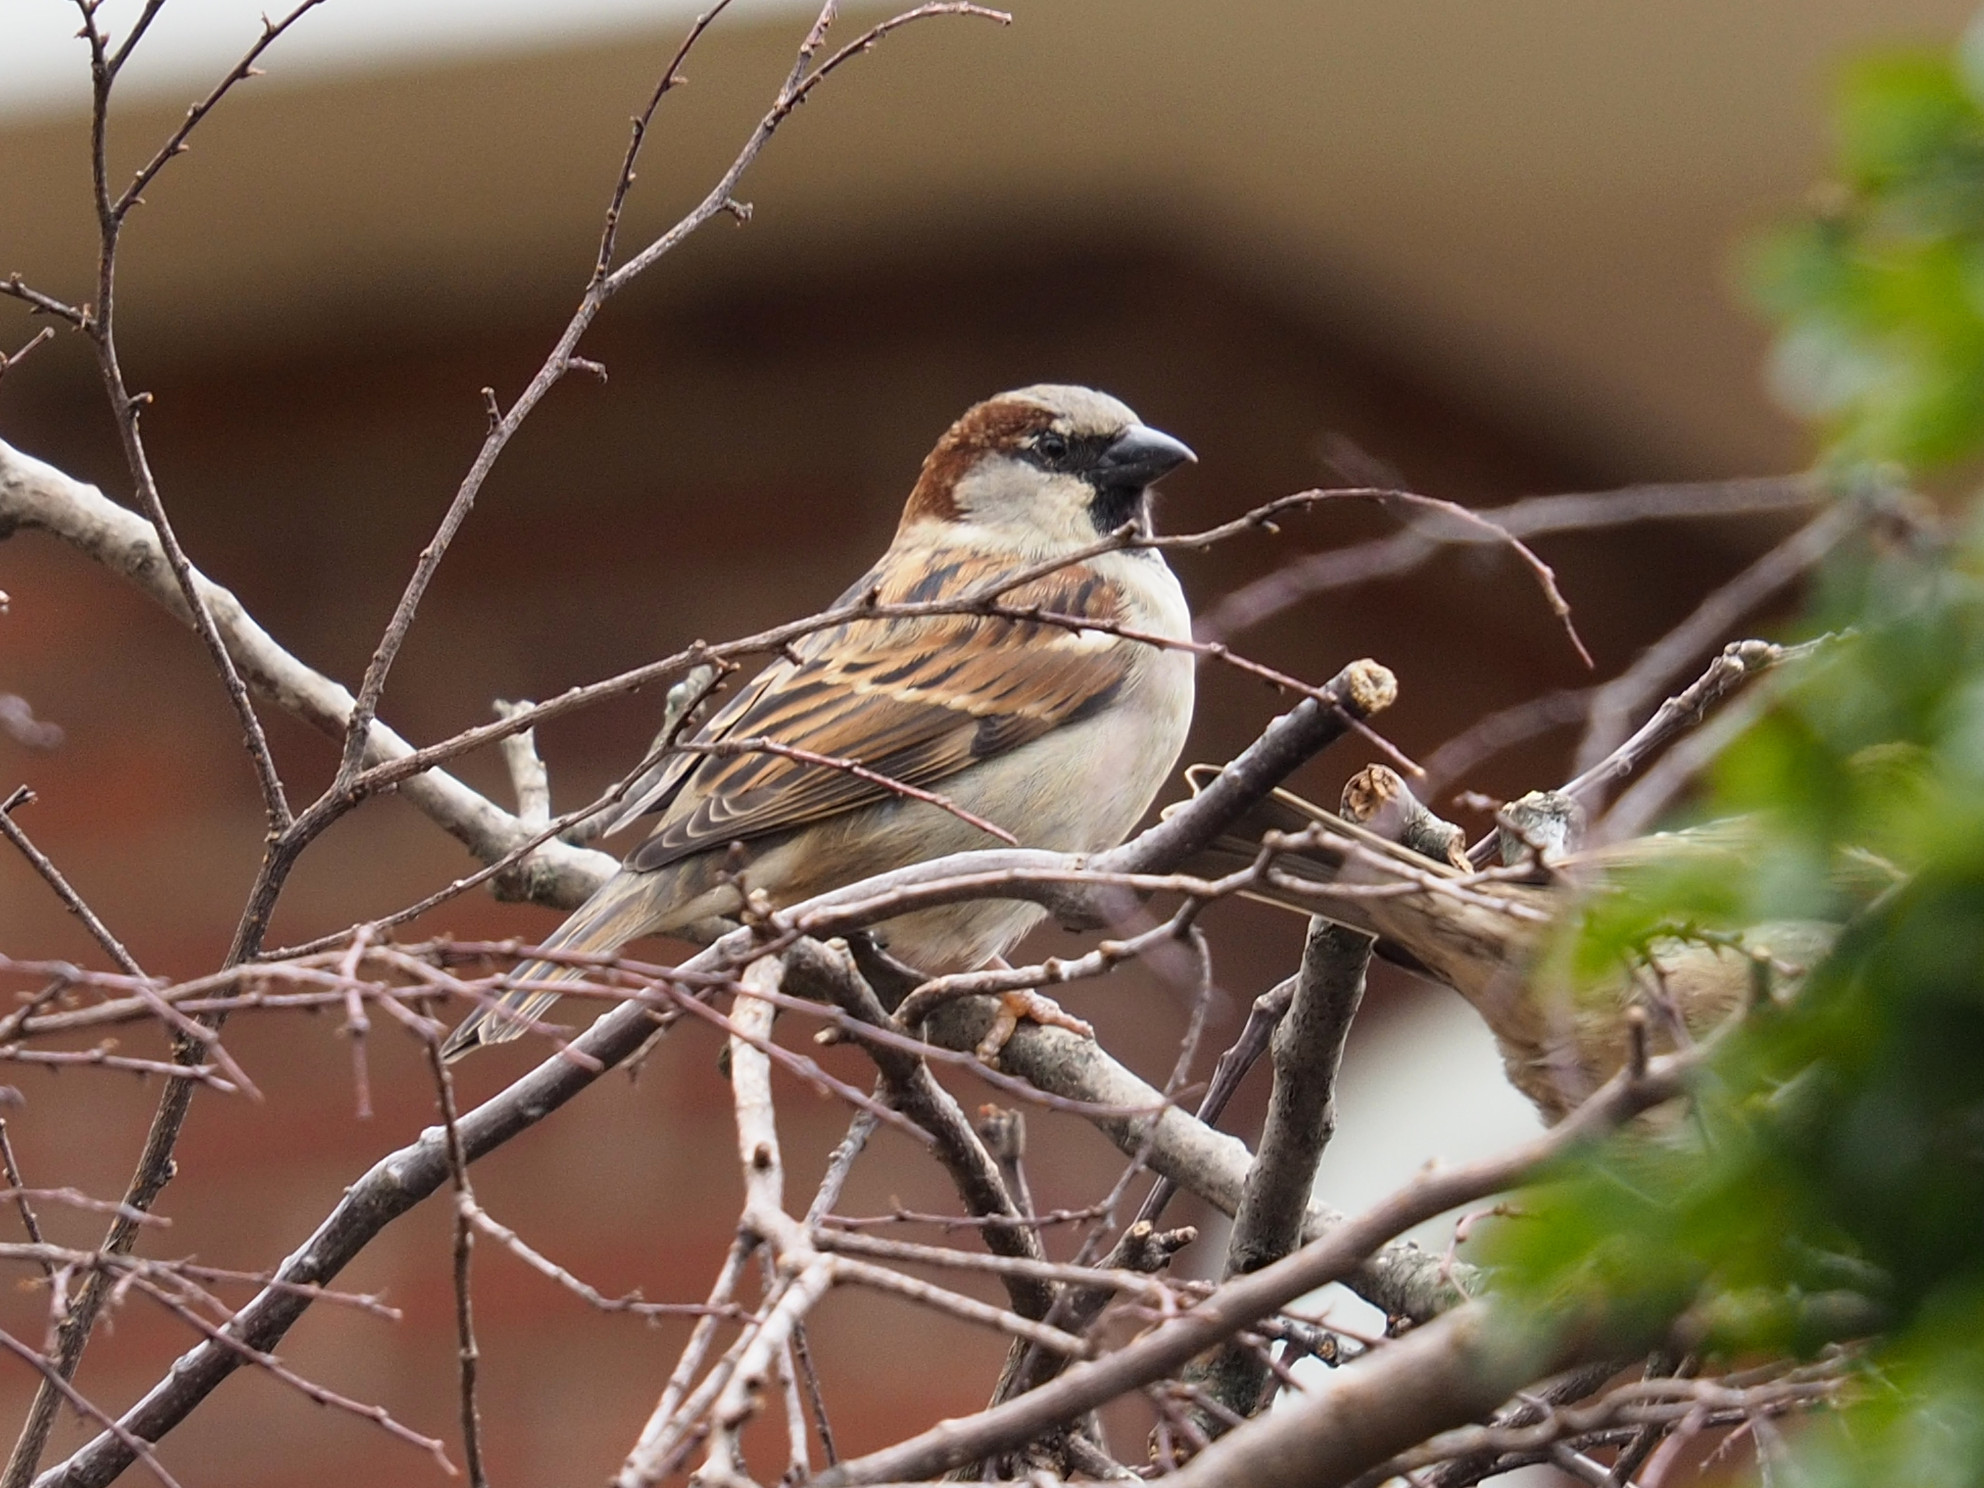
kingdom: Animalia
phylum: Chordata
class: Aves
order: Passeriformes
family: Passeridae
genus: Passer
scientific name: Passer domesticus
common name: House sparrow
